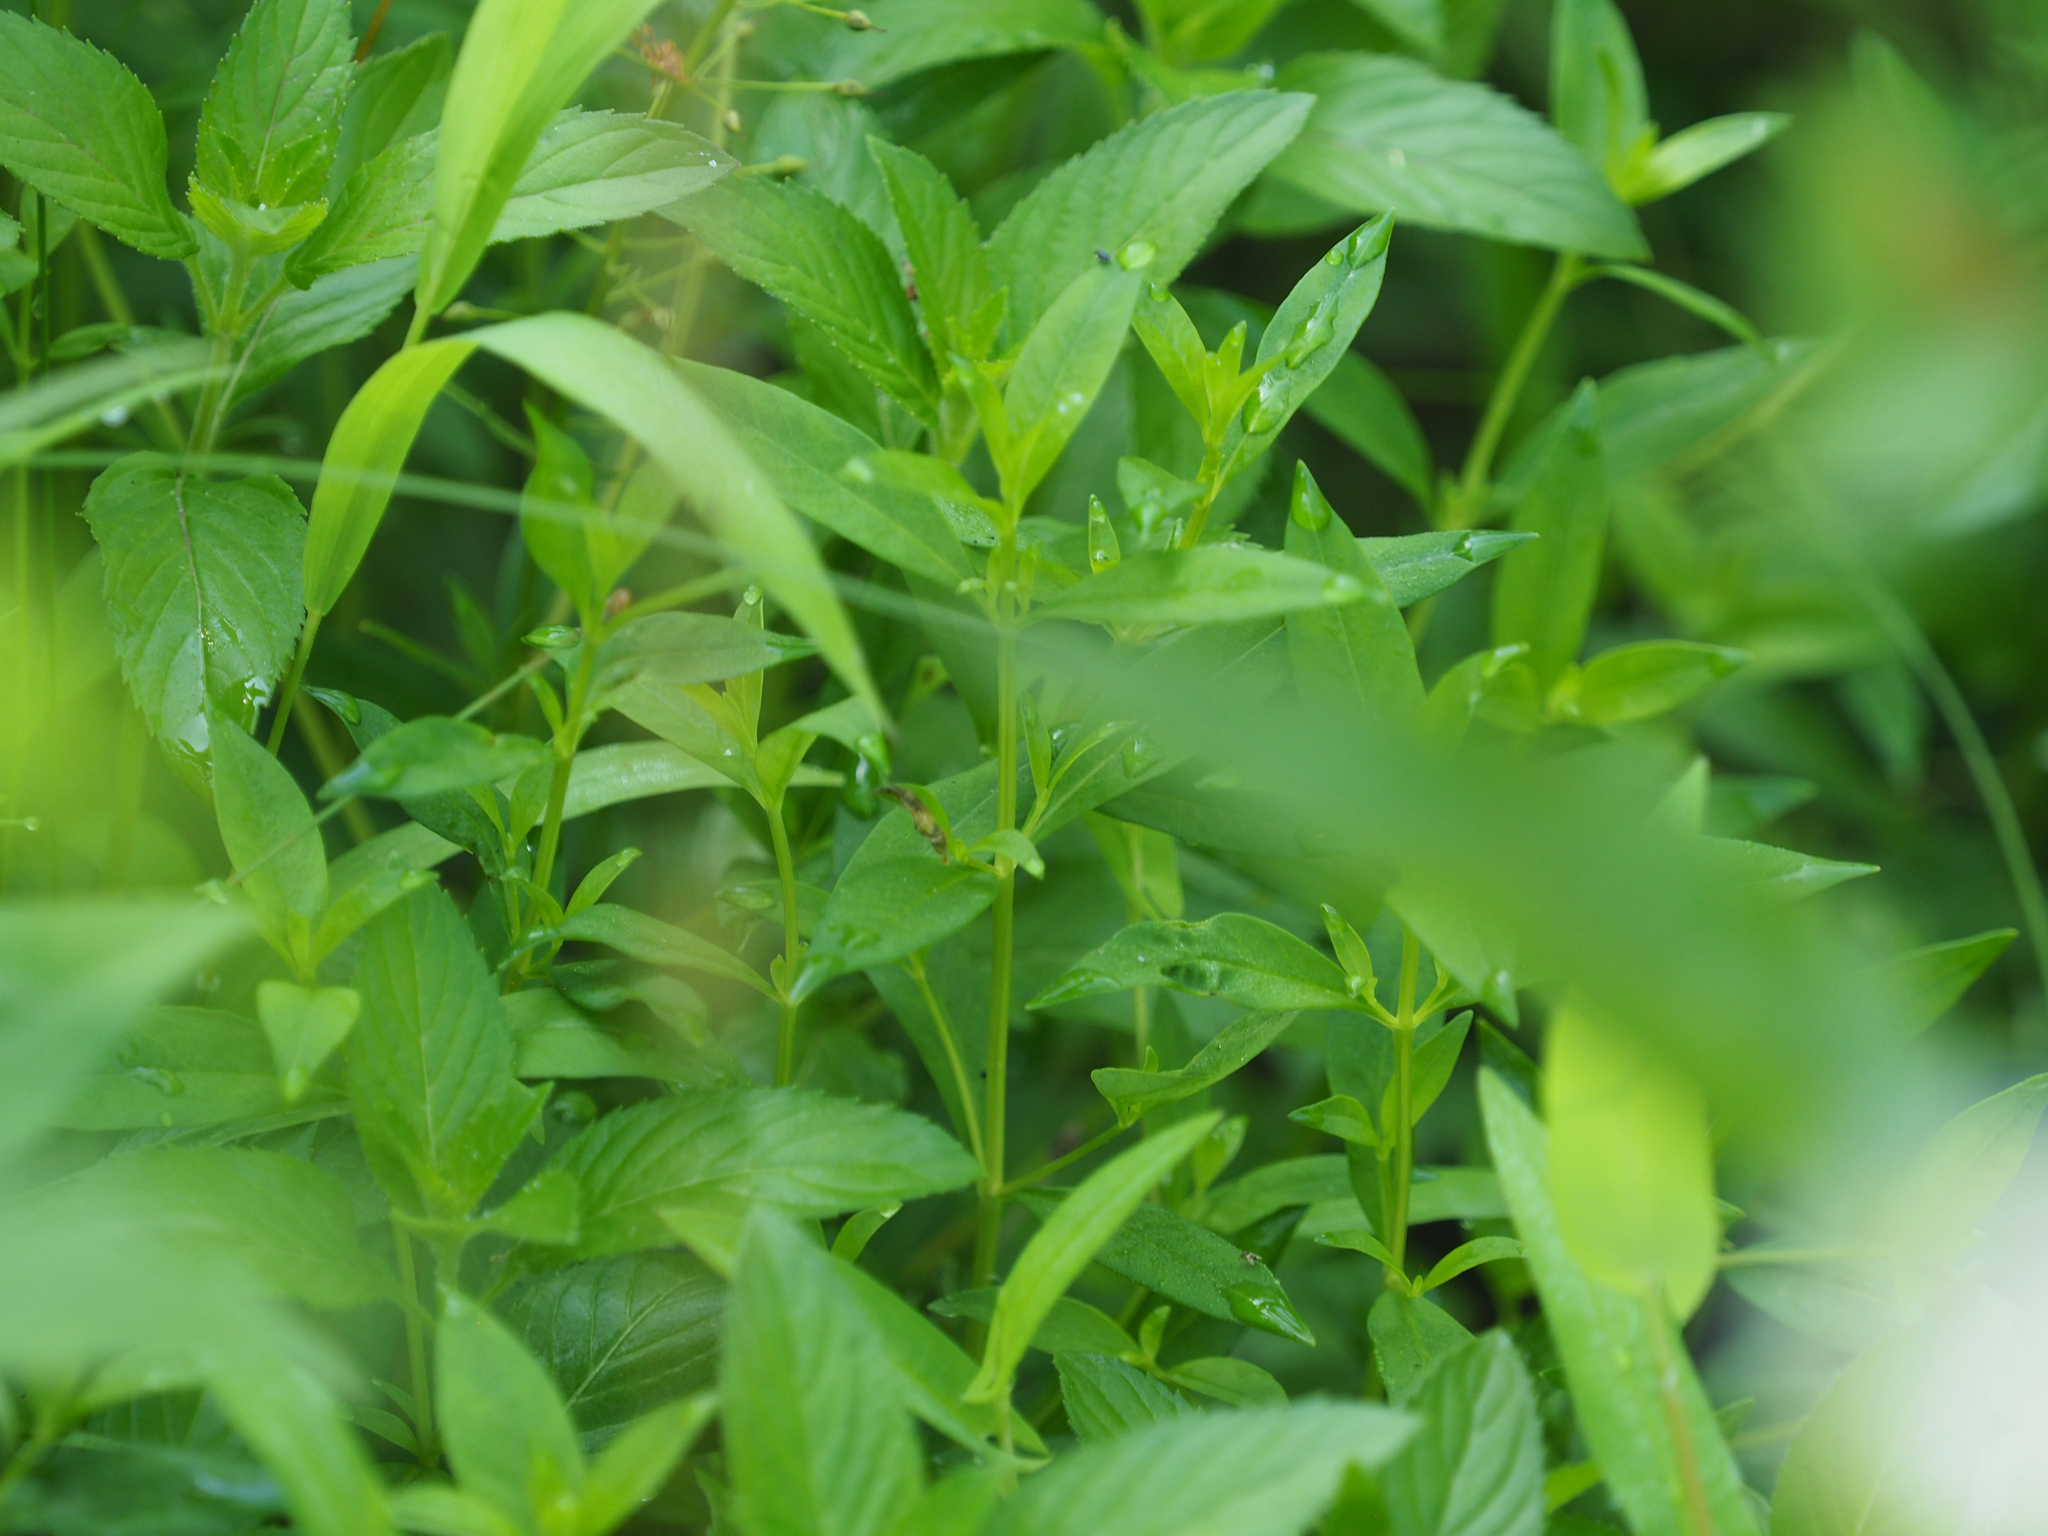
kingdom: Plantae
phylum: Tracheophyta
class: Magnoliopsida
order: Ericales
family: Primulaceae
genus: Lysimachia
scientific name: Lysimachia terrestris
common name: Lake loosestrife
